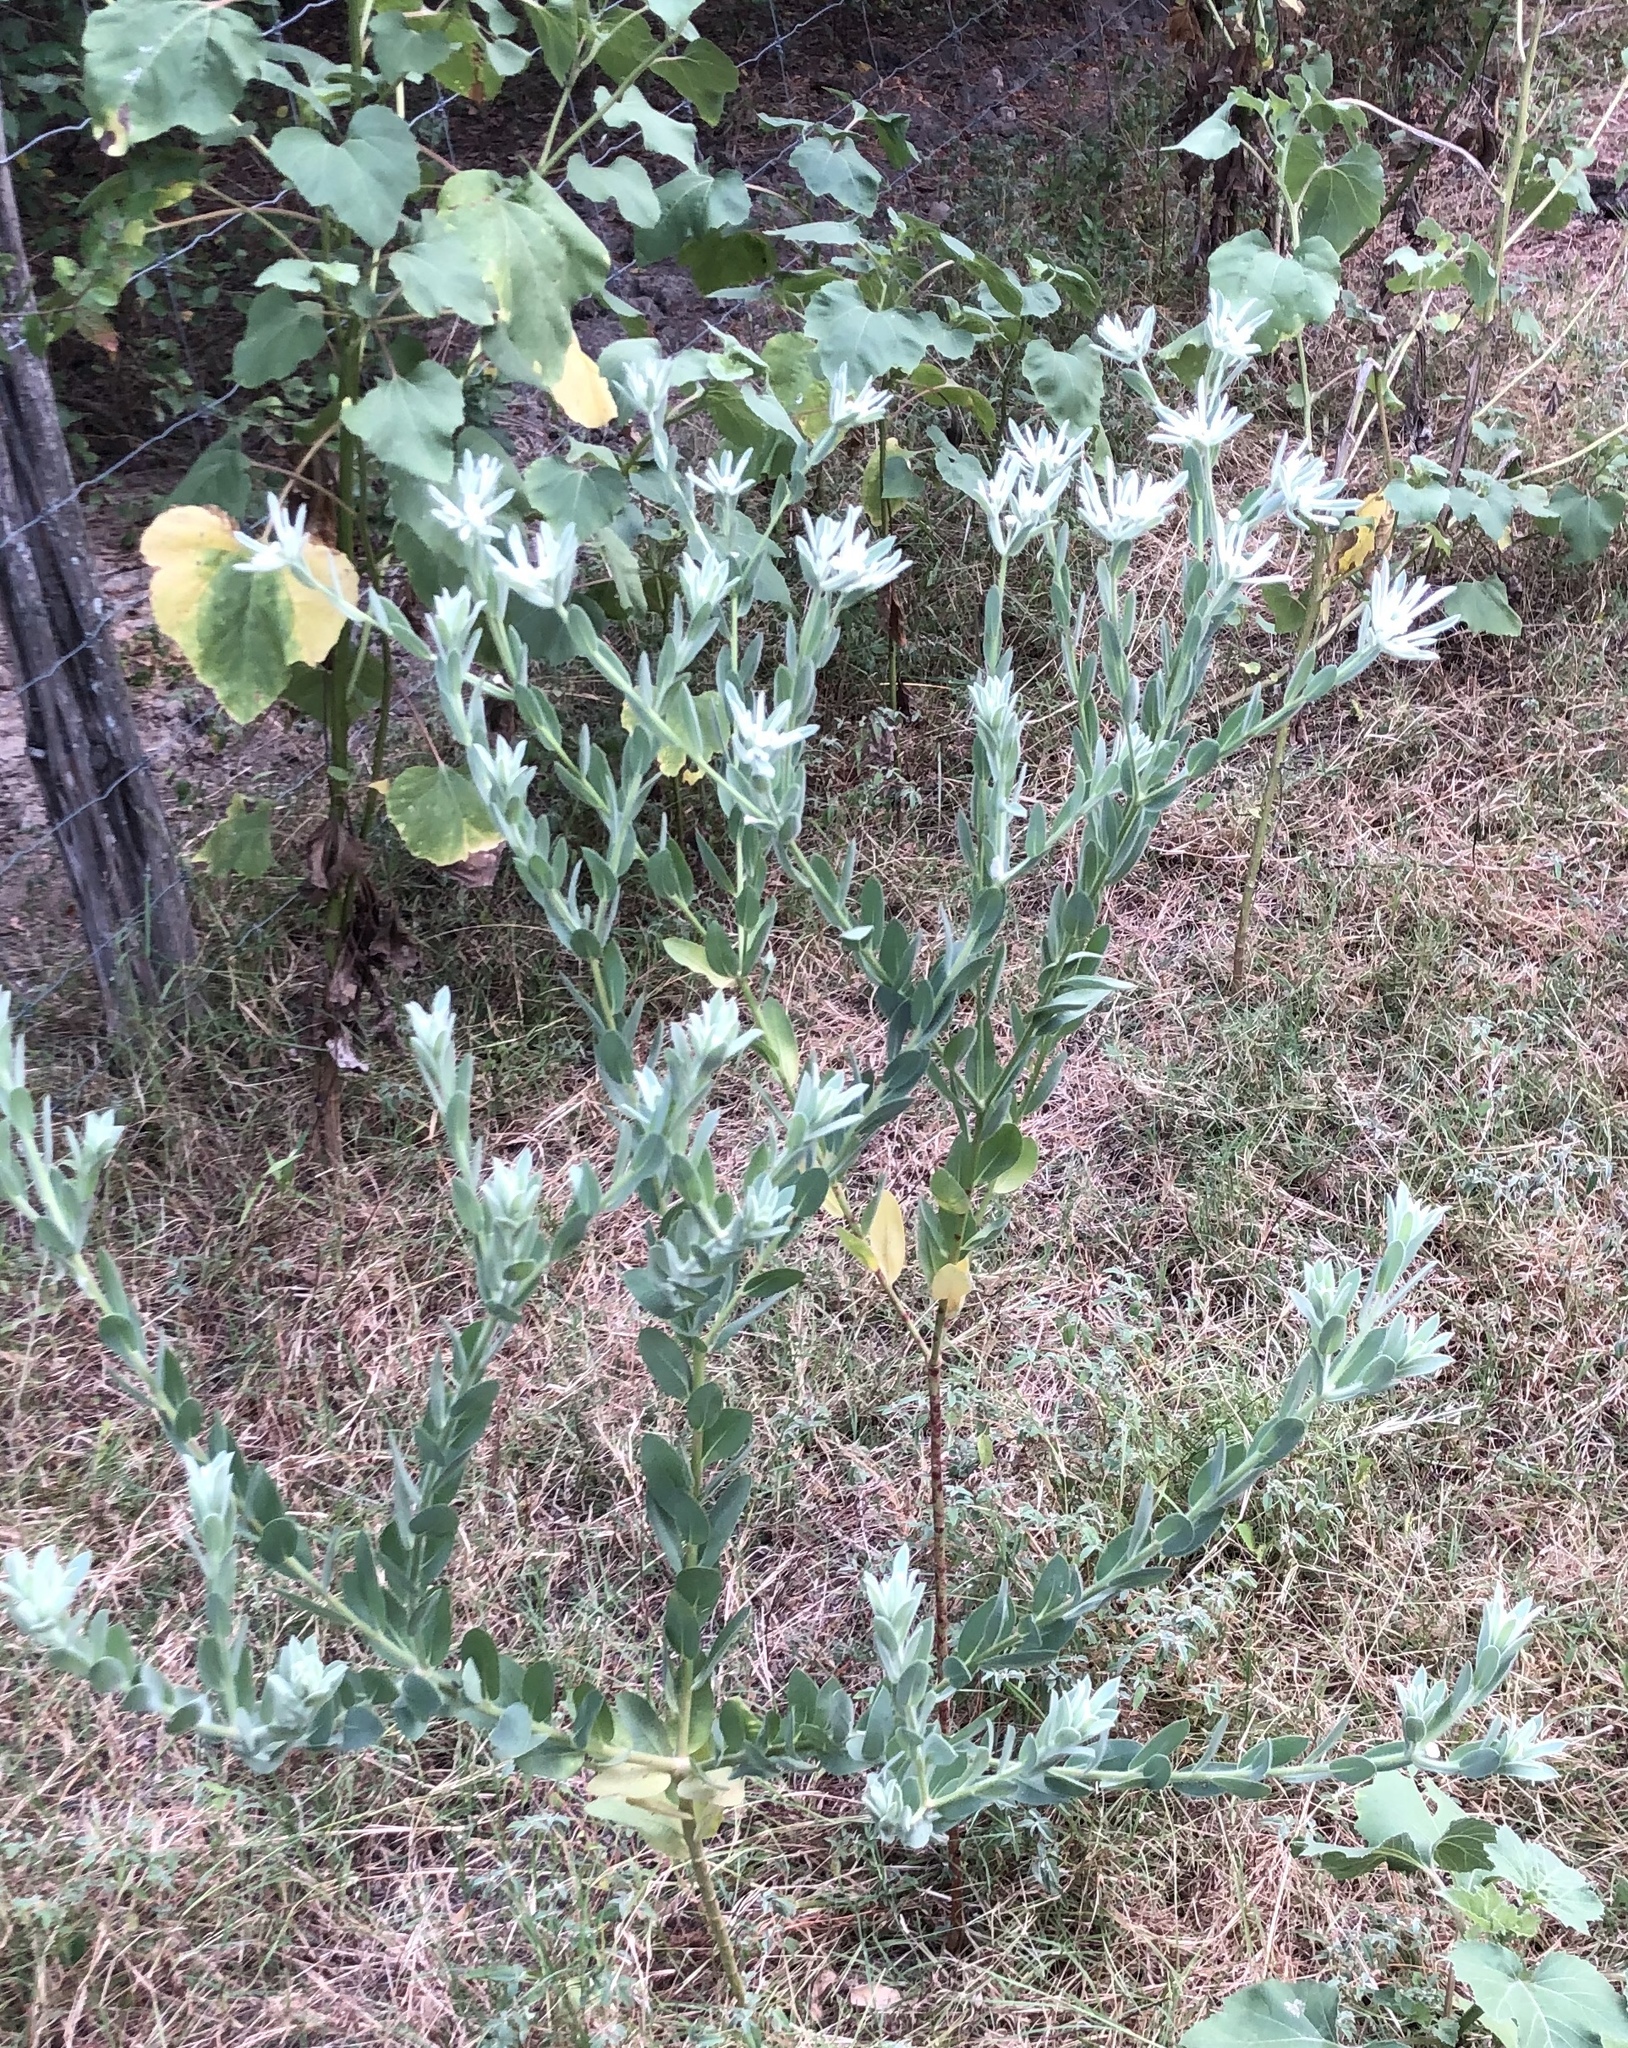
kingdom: Plantae
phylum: Tracheophyta
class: Magnoliopsida
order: Malpighiales
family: Euphorbiaceae
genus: Euphorbia
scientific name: Euphorbia bicolor
